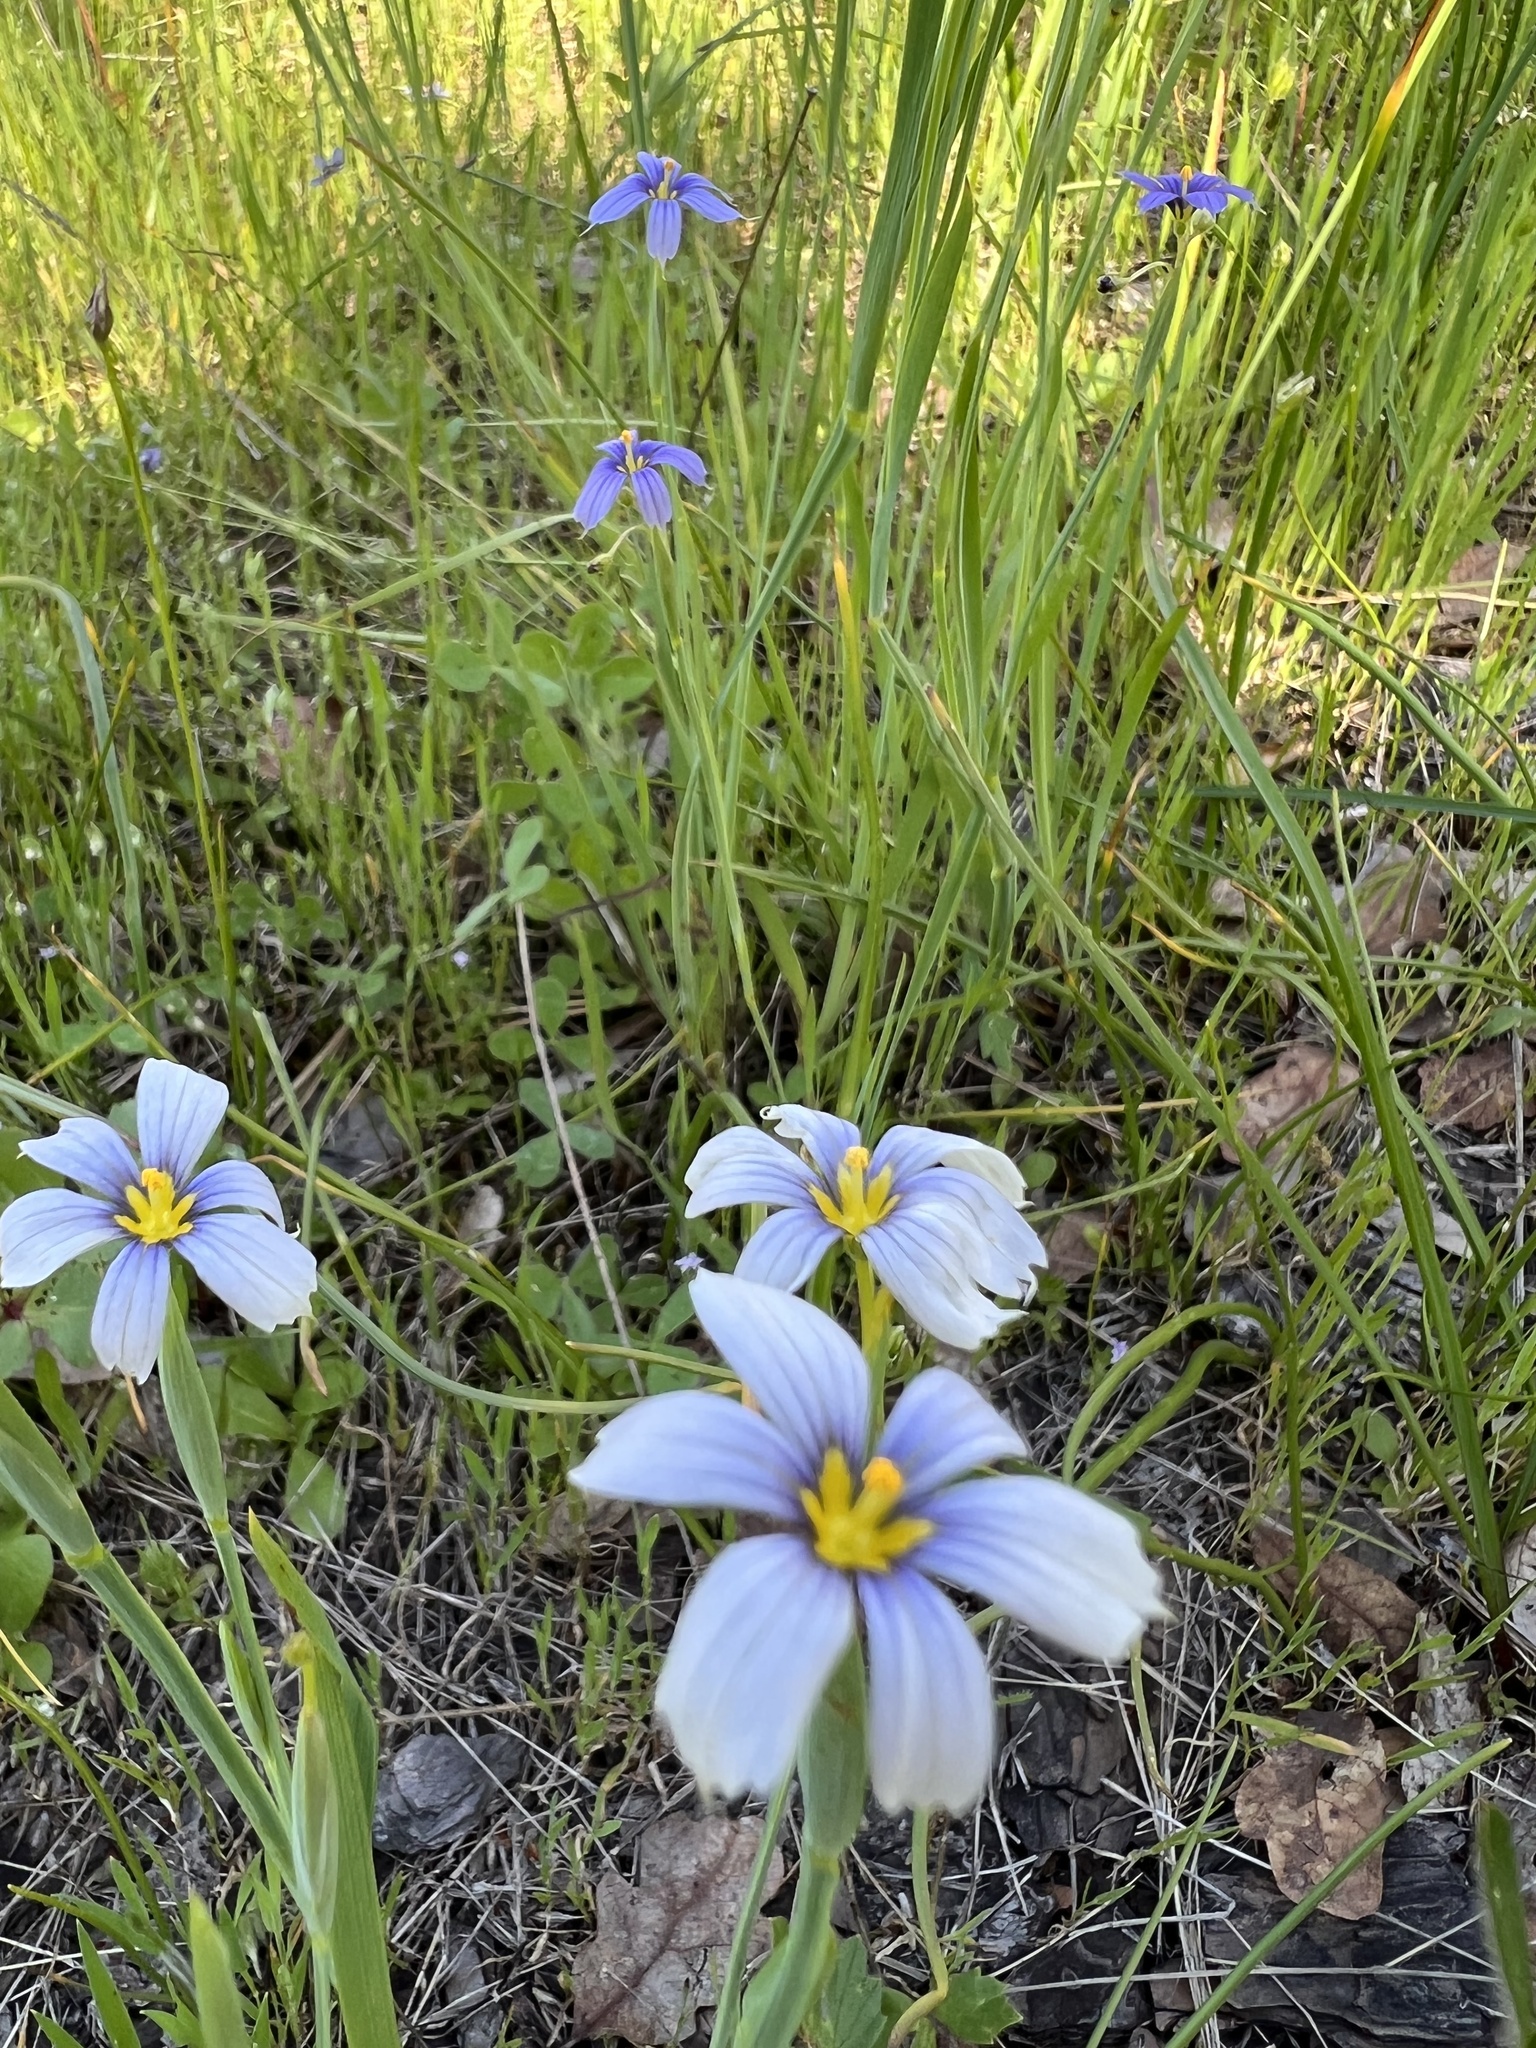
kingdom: Plantae
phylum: Tracheophyta
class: Liliopsida
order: Asparagales
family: Iridaceae
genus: Sisyrinchium
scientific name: Sisyrinchium bellum
